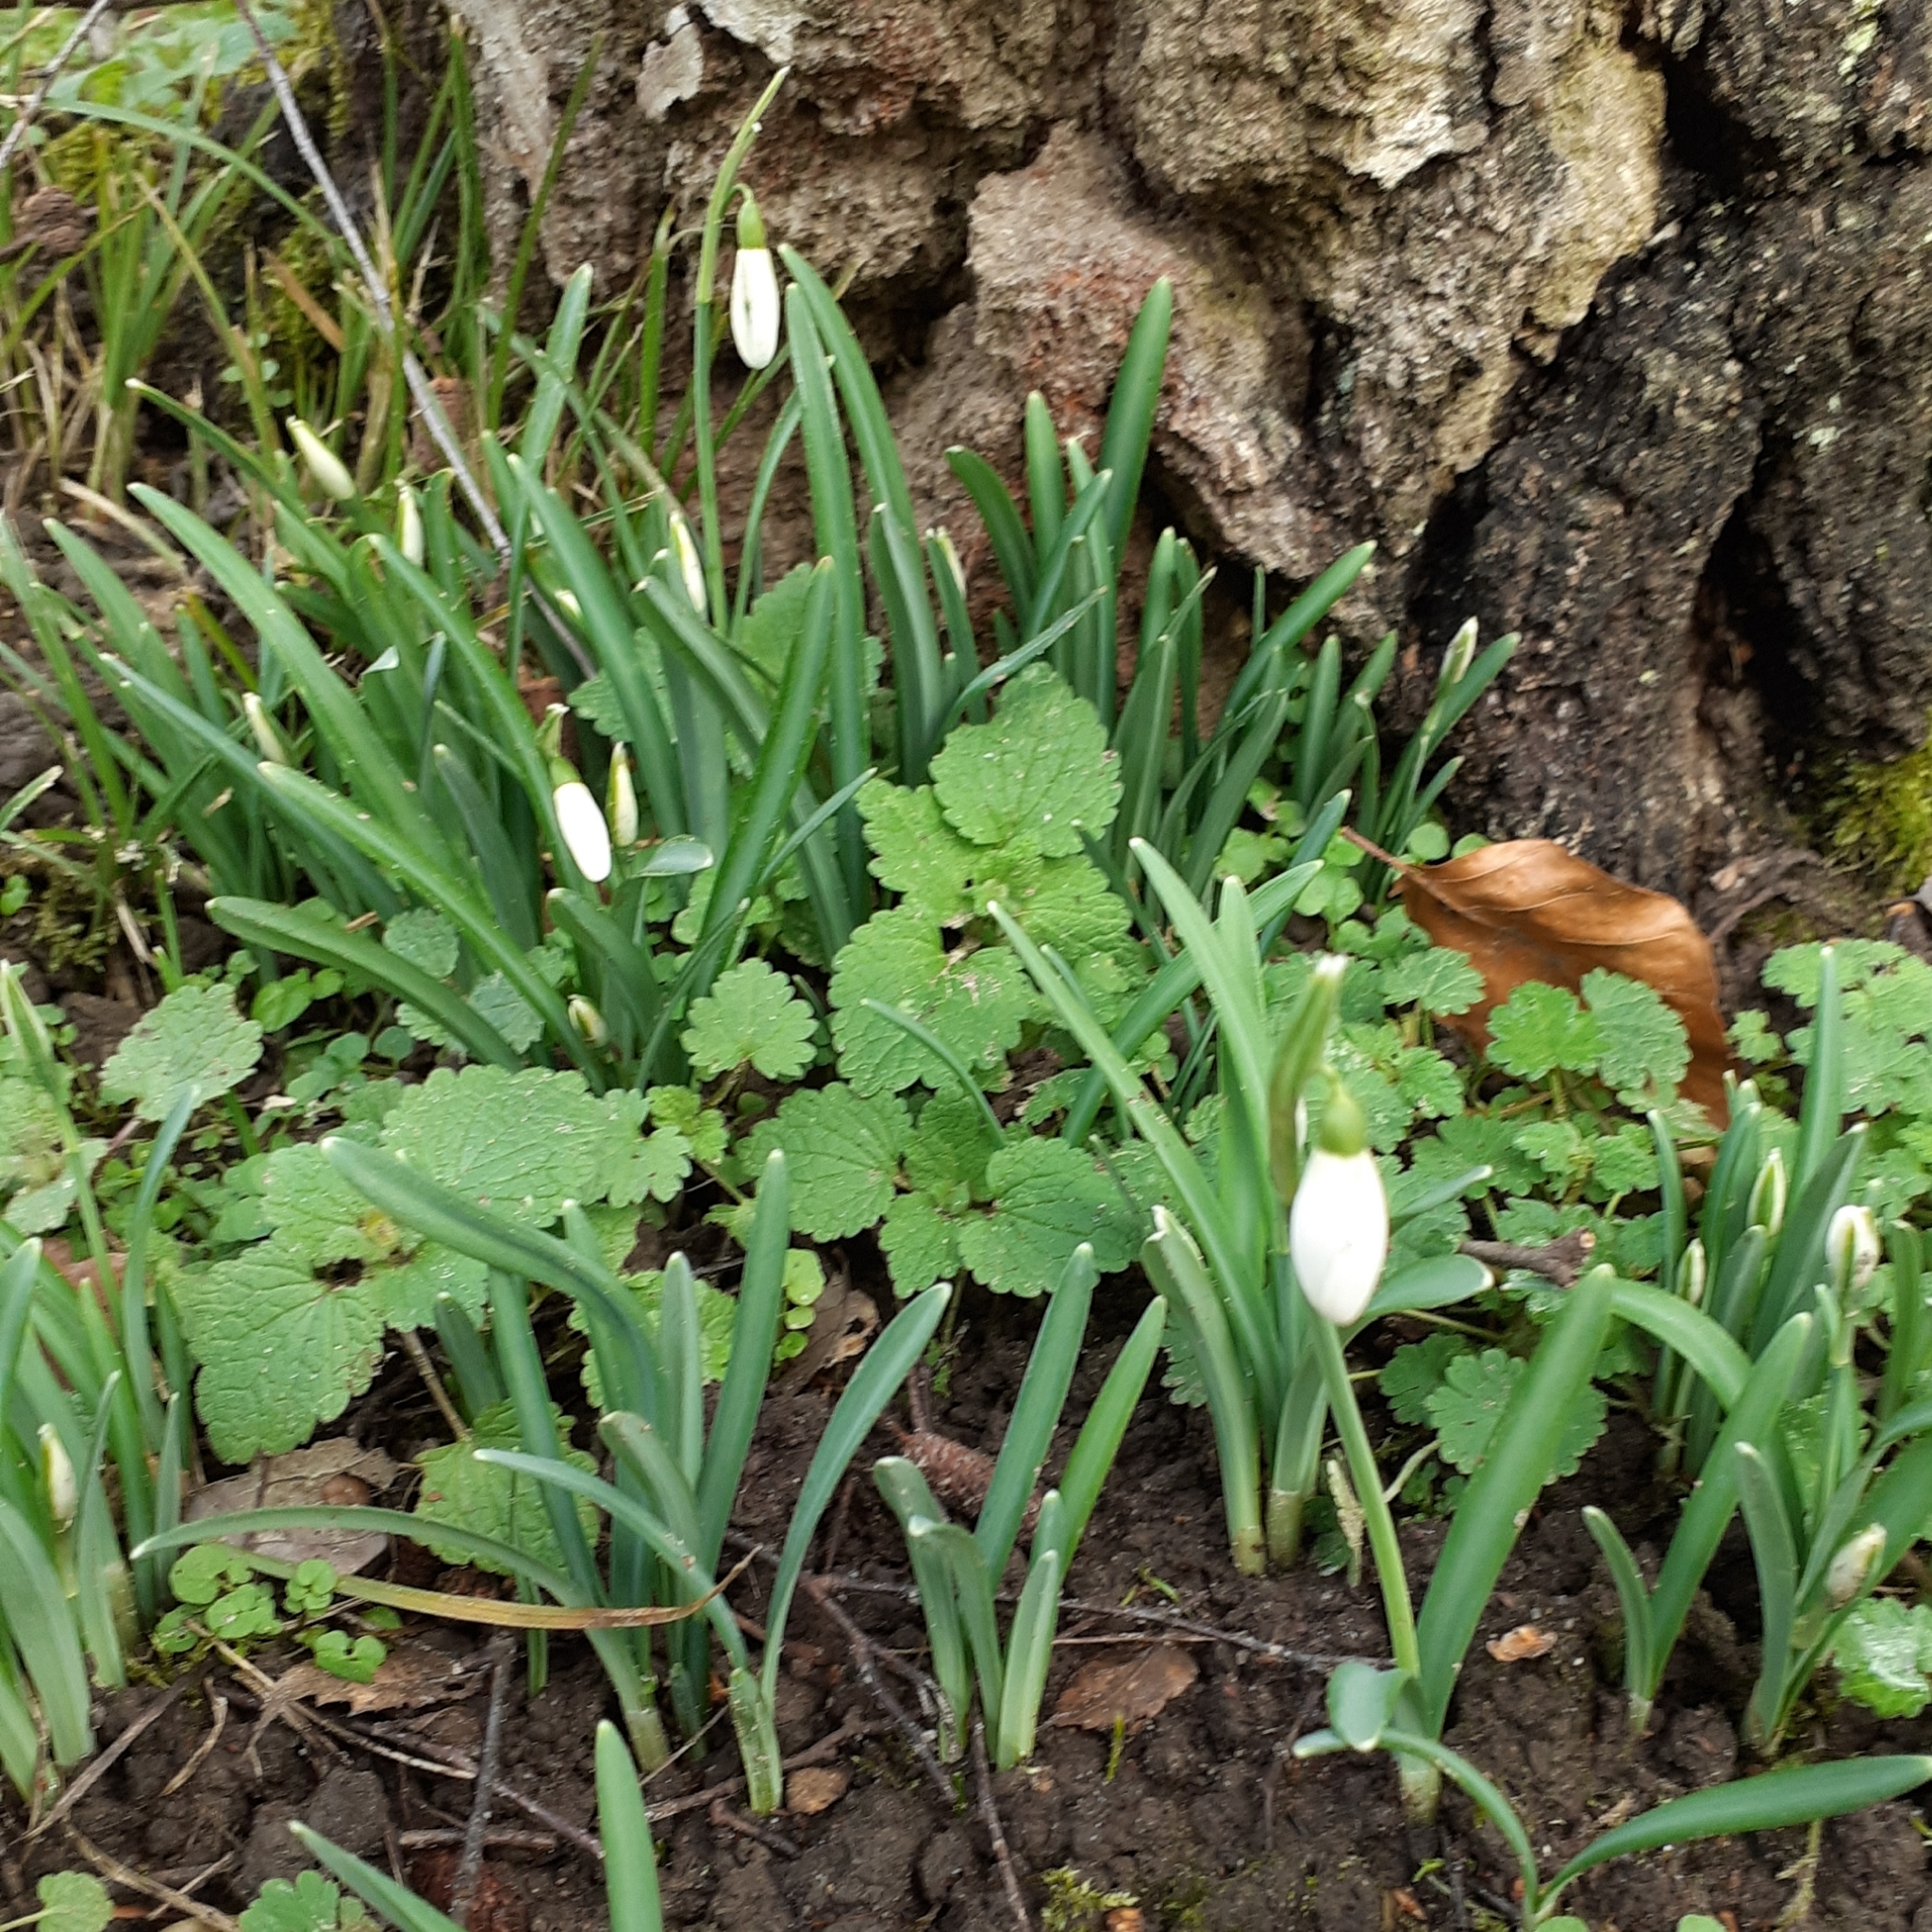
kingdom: Plantae
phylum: Tracheophyta
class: Liliopsida
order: Asparagales
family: Amaryllidaceae
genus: Galanthus
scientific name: Galanthus nivalis
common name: Snowdrop
